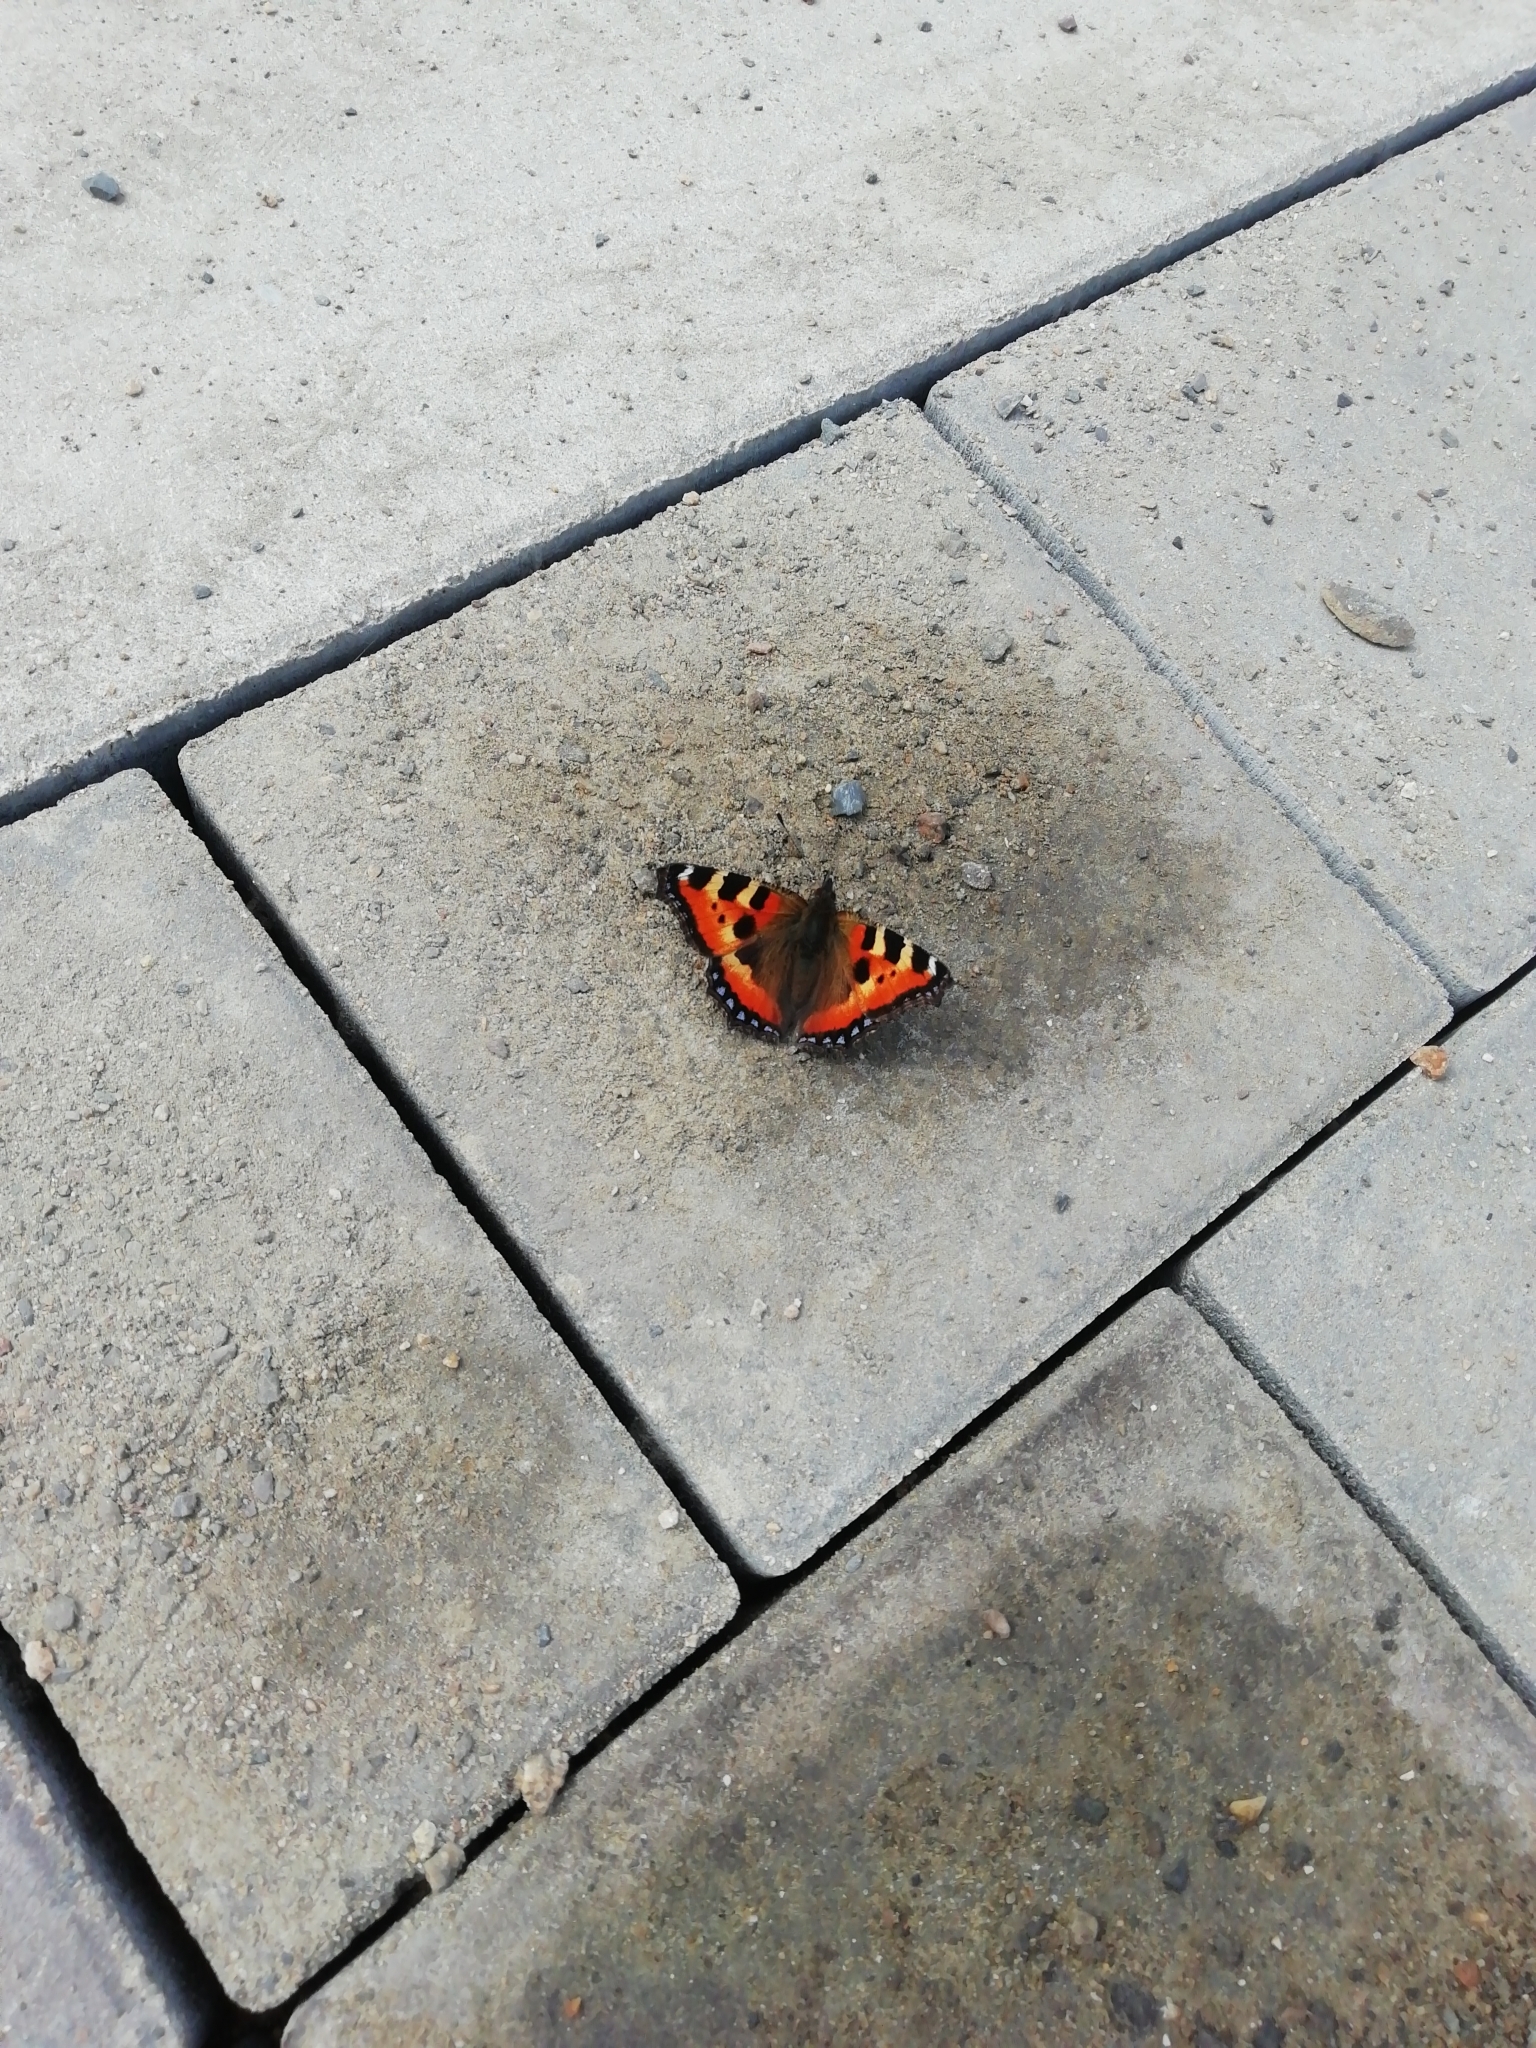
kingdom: Animalia
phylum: Arthropoda
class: Insecta
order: Lepidoptera
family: Nymphalidae
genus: Aglais
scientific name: Aglais urticae
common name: Small tortoiseshell
